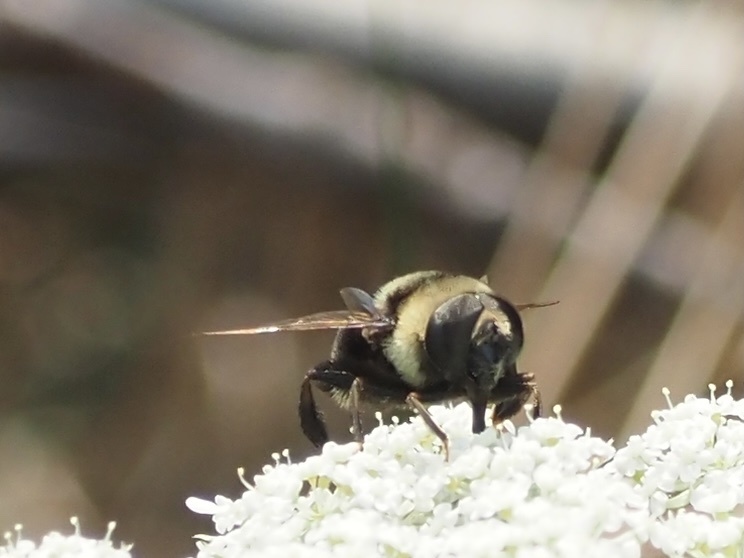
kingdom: Animalia
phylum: Arthropoda
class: Insecta
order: Diptera
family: Syrphidae
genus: Eristalis
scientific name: Eristalis flavipes
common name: Orange-legged drone fly
